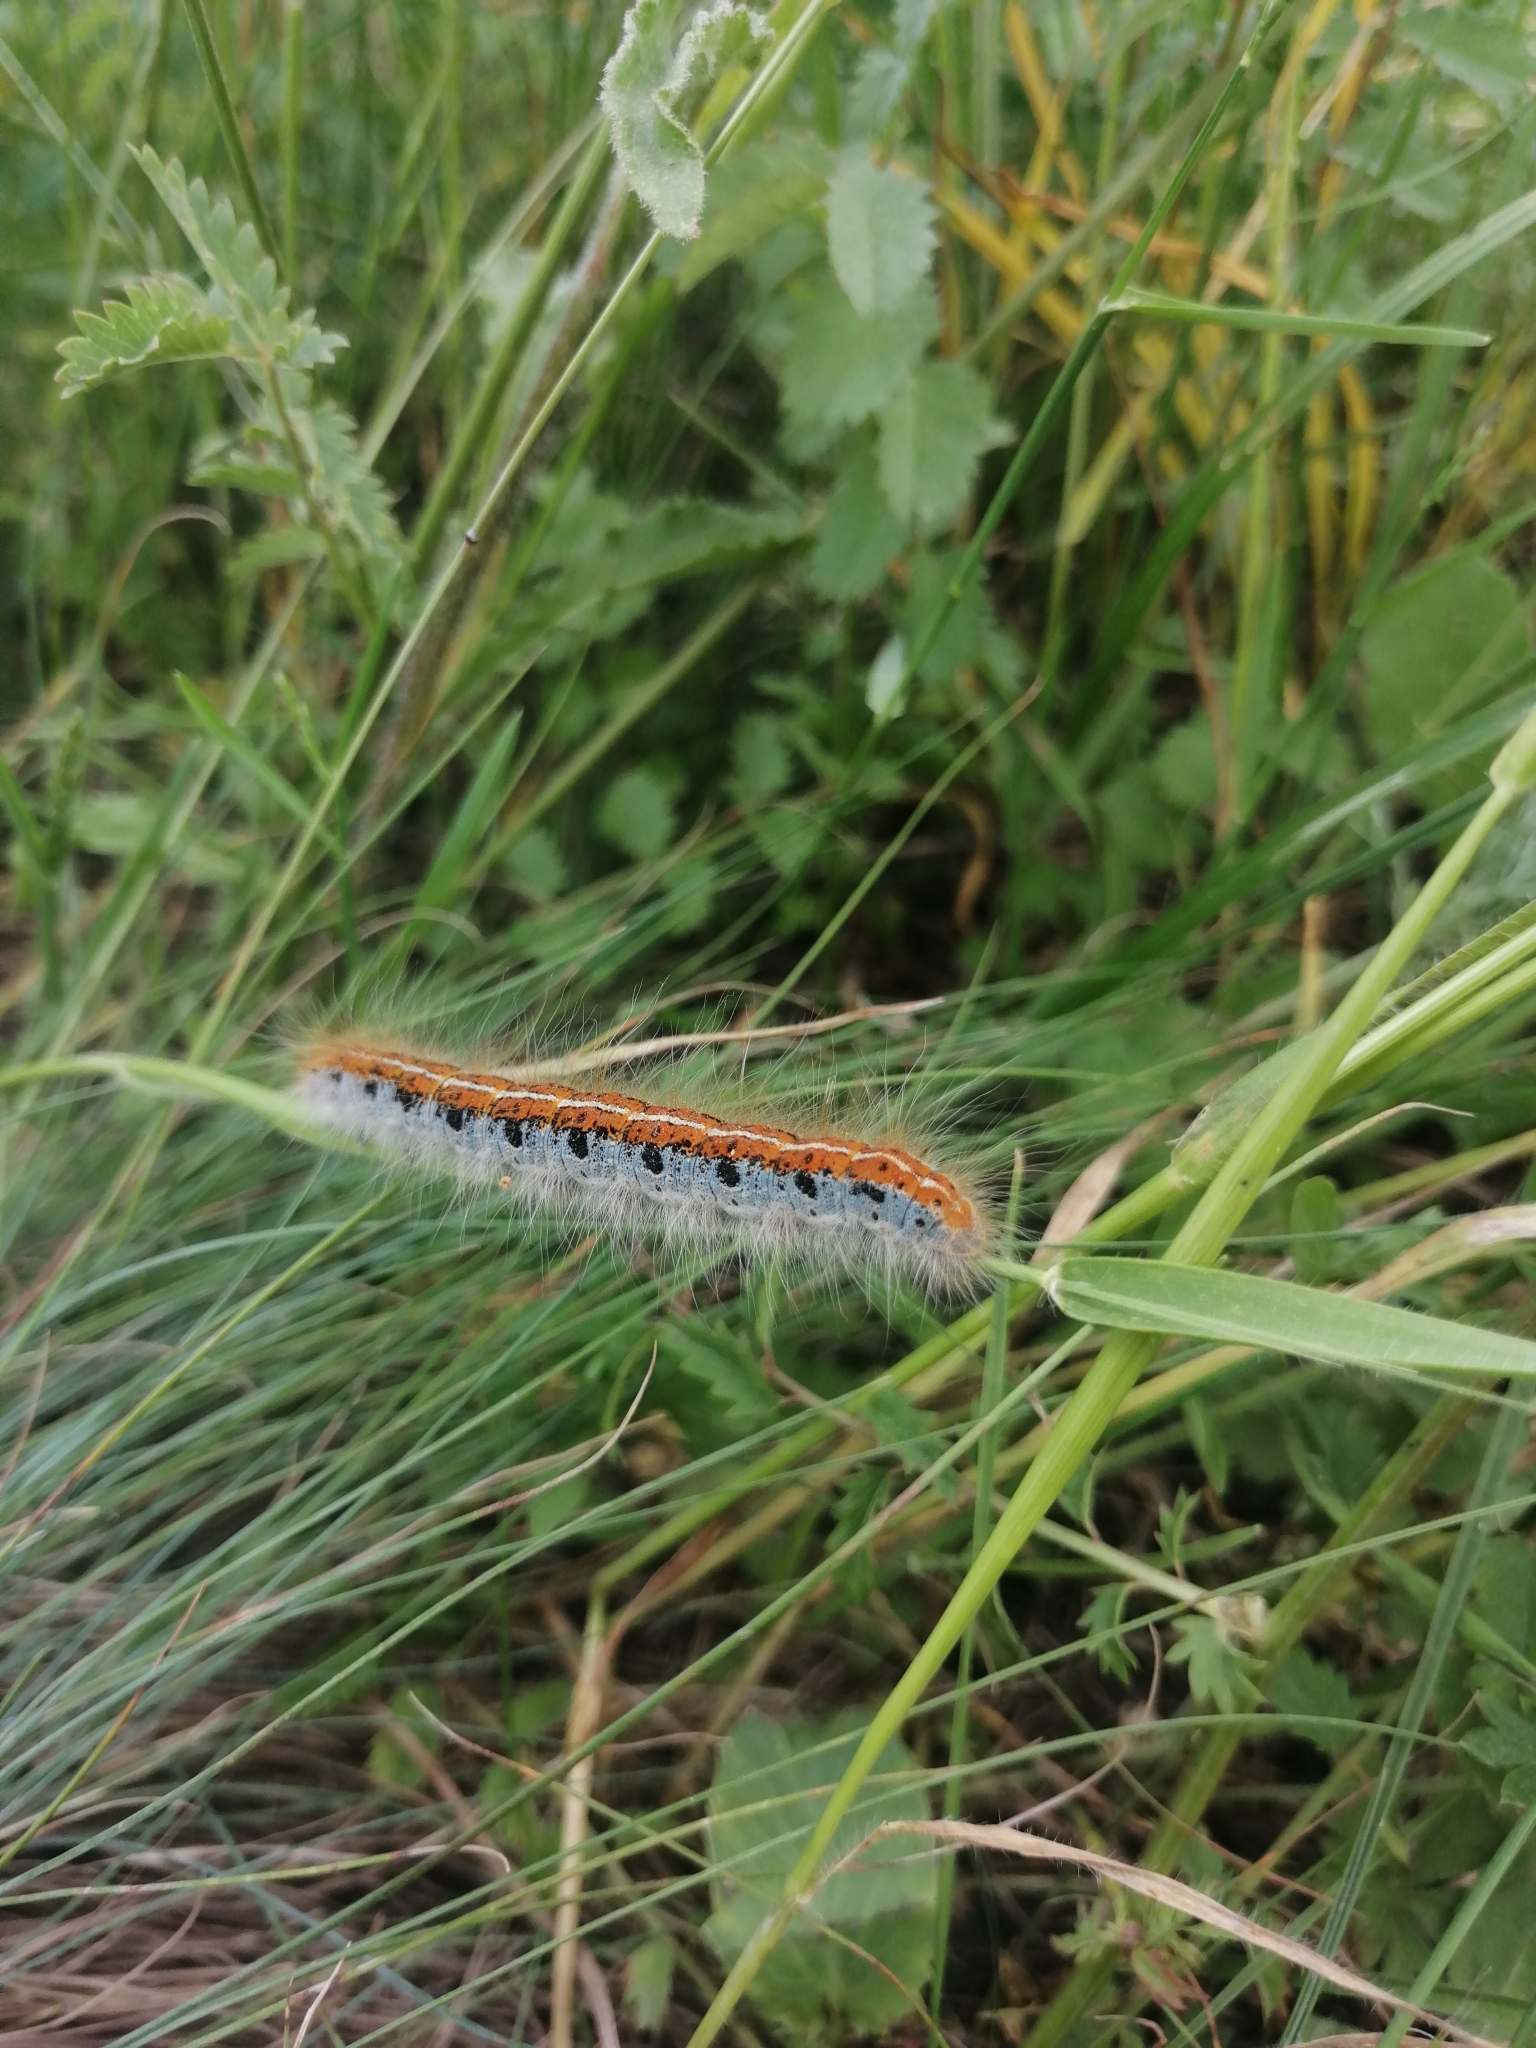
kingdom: Animalia
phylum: Arthropoda
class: Insecta
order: Lepidoptera
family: Lasiocampidae
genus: Malacosoma
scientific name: Malacosoma castrense
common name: Ground lackey
